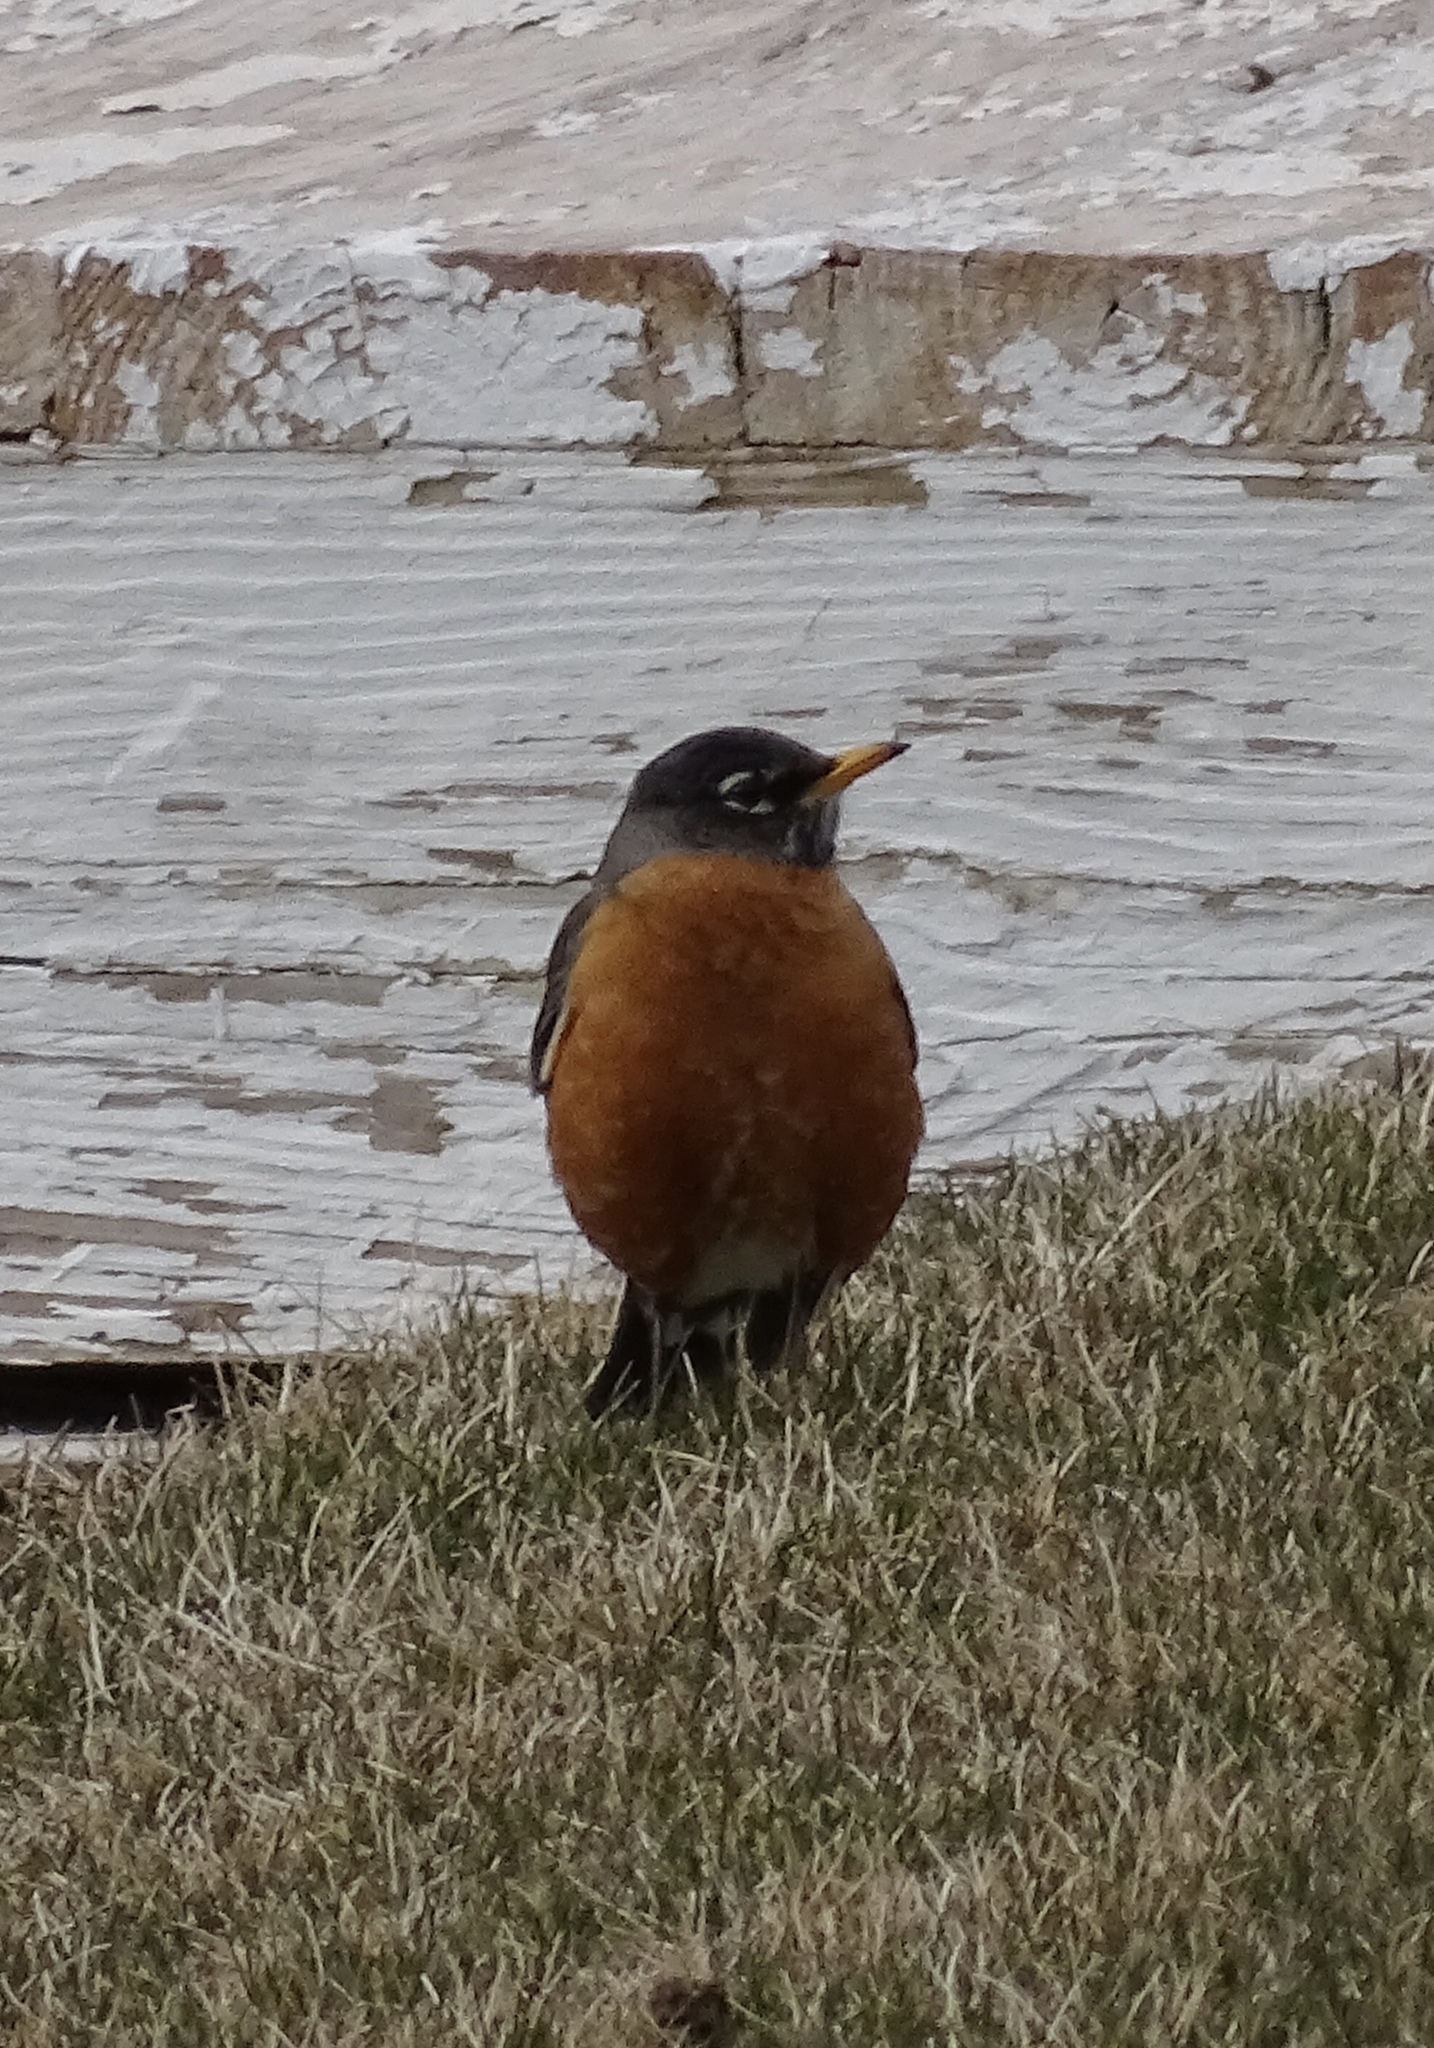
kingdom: Animalia
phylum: Chordata
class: Aves
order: Passeriformes
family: Turdidae
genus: Turdus
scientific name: Turdus migratorius
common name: American robin
